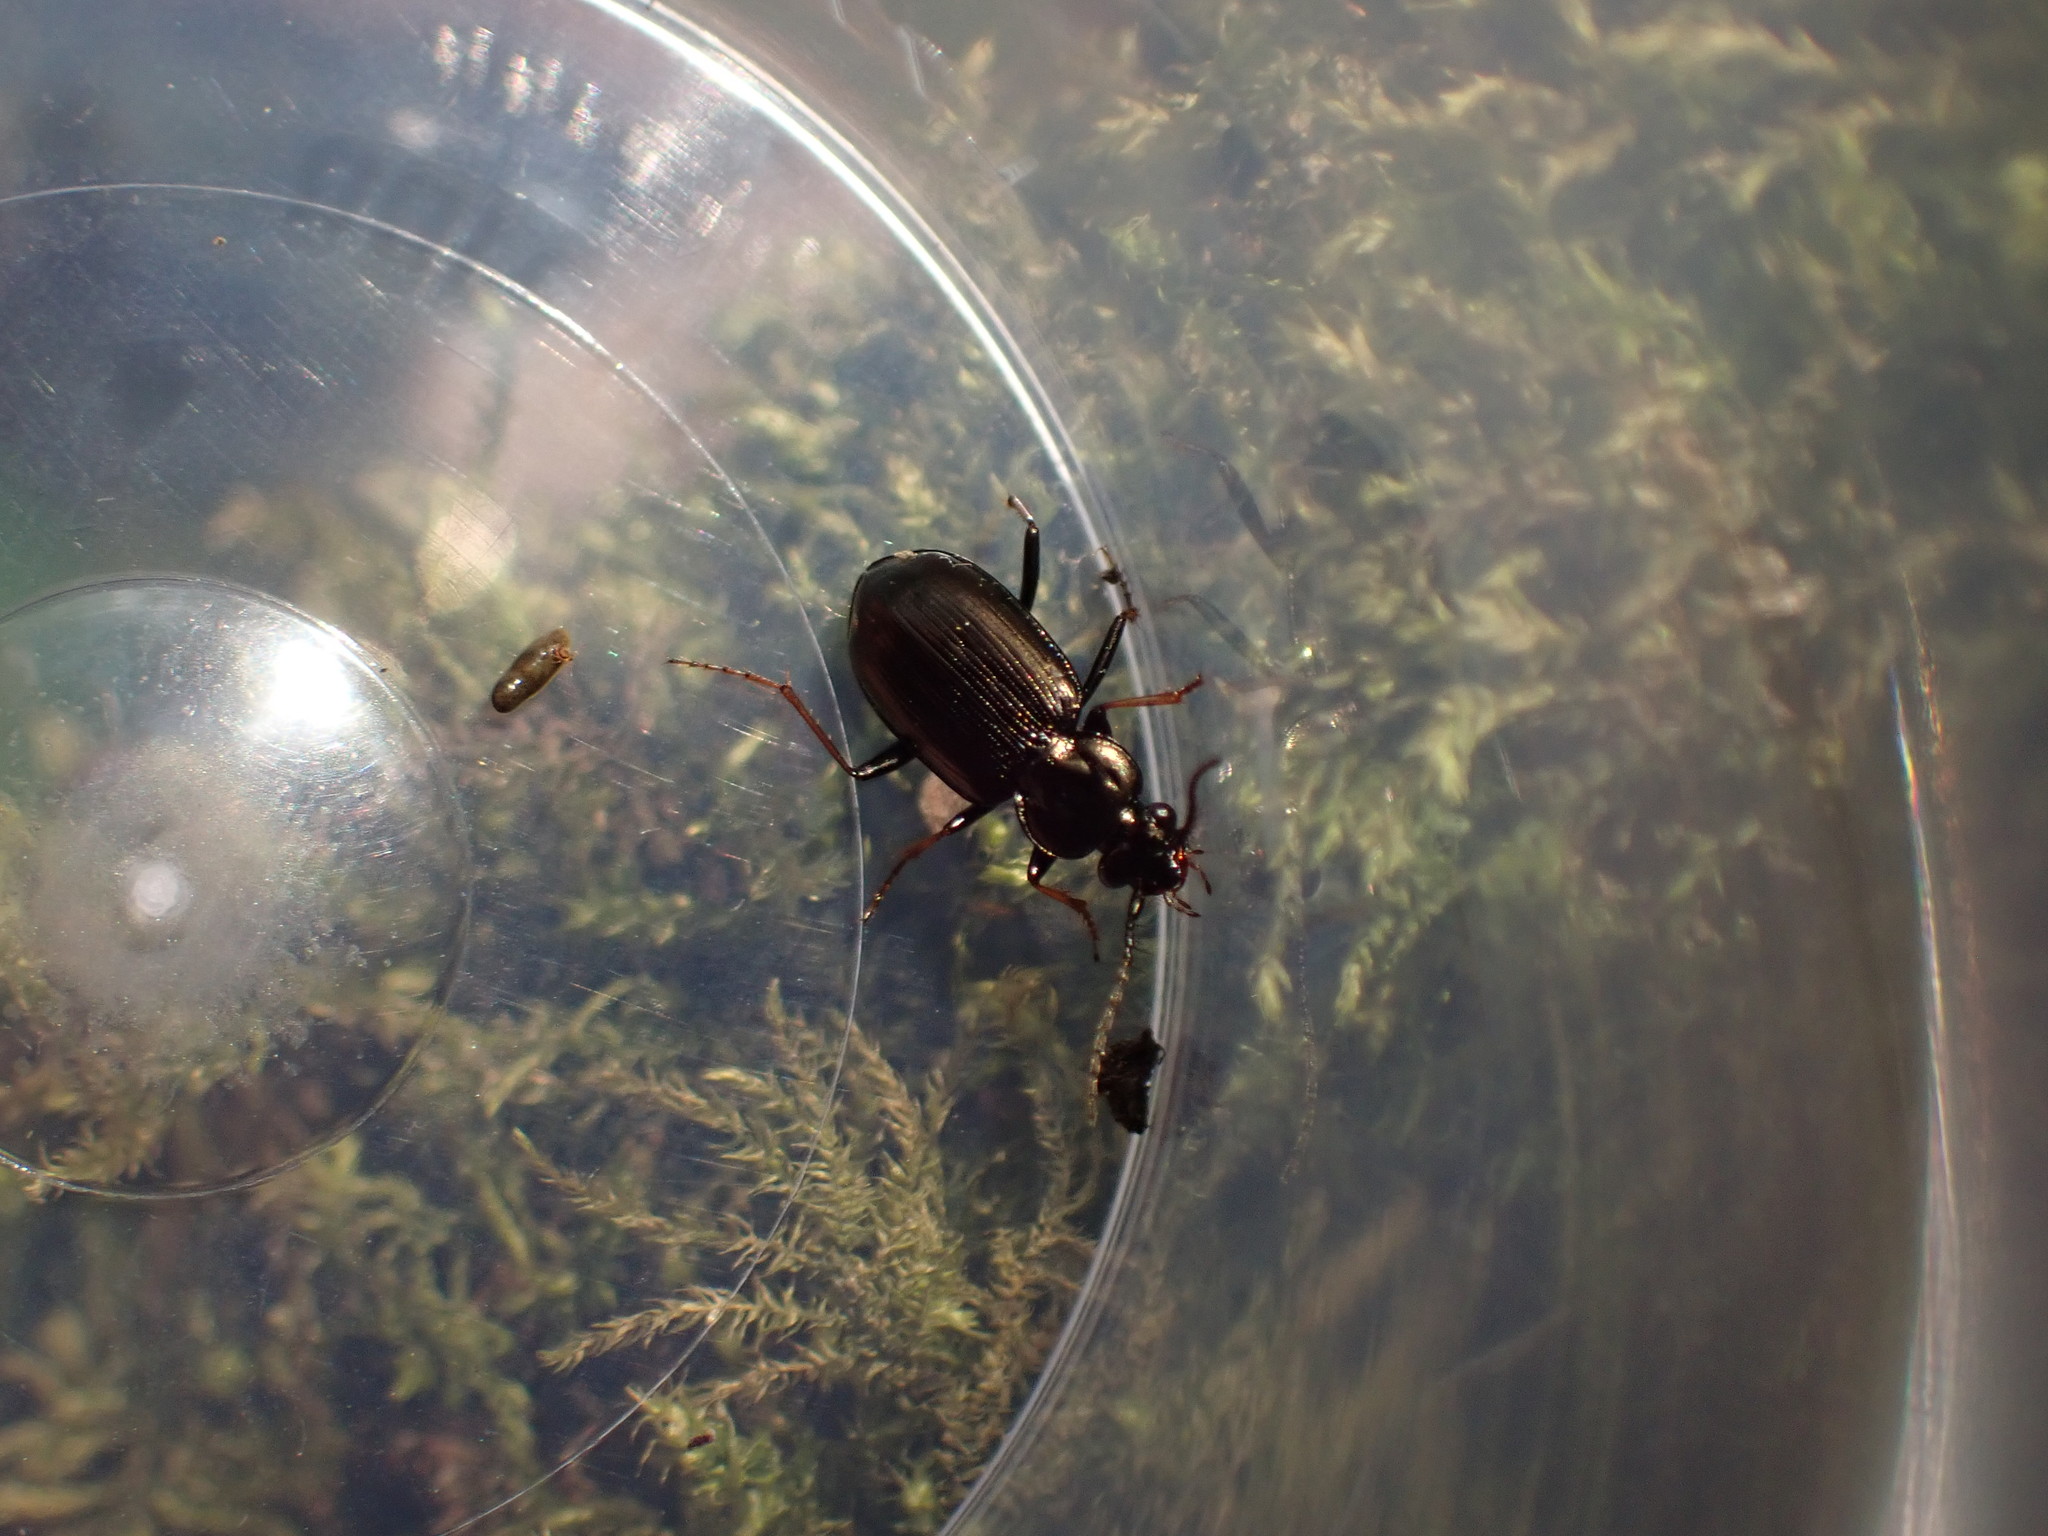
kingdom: Animalia
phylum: Arthropoda
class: Insecta
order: Coleoptera
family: Carabidae
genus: Loricera
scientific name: Loricera pilicornis
